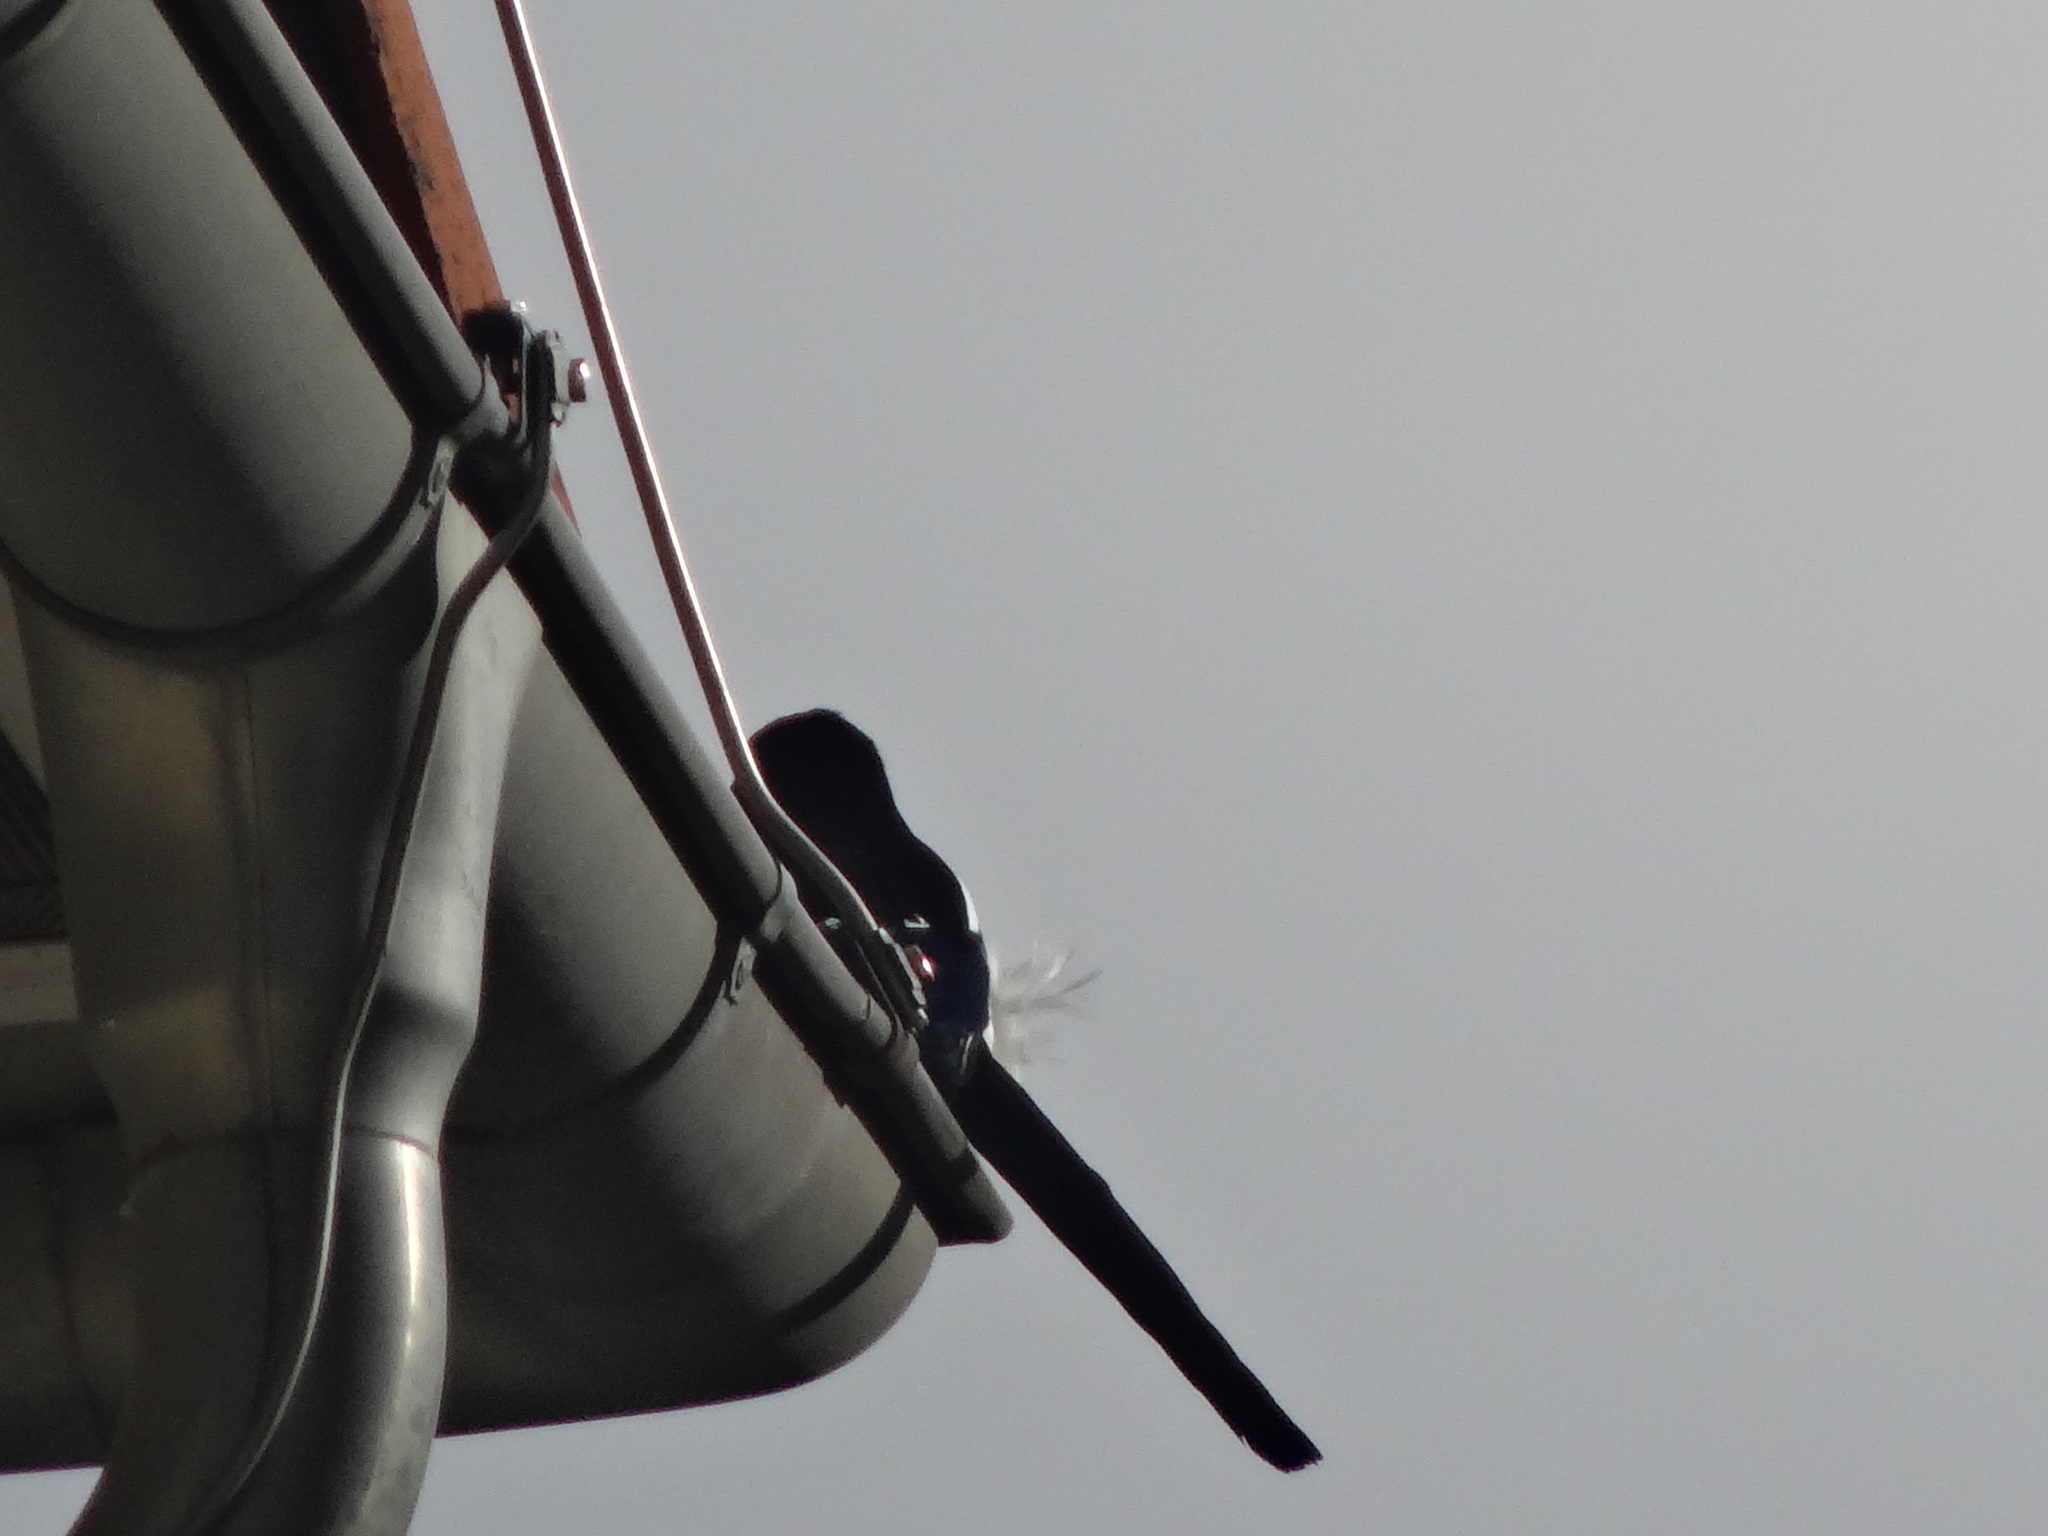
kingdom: Animalia
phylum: Chordata
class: Aves
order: Passeriformes
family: Corvidae
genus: Pica
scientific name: Pica pica
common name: Eurasian magpie
